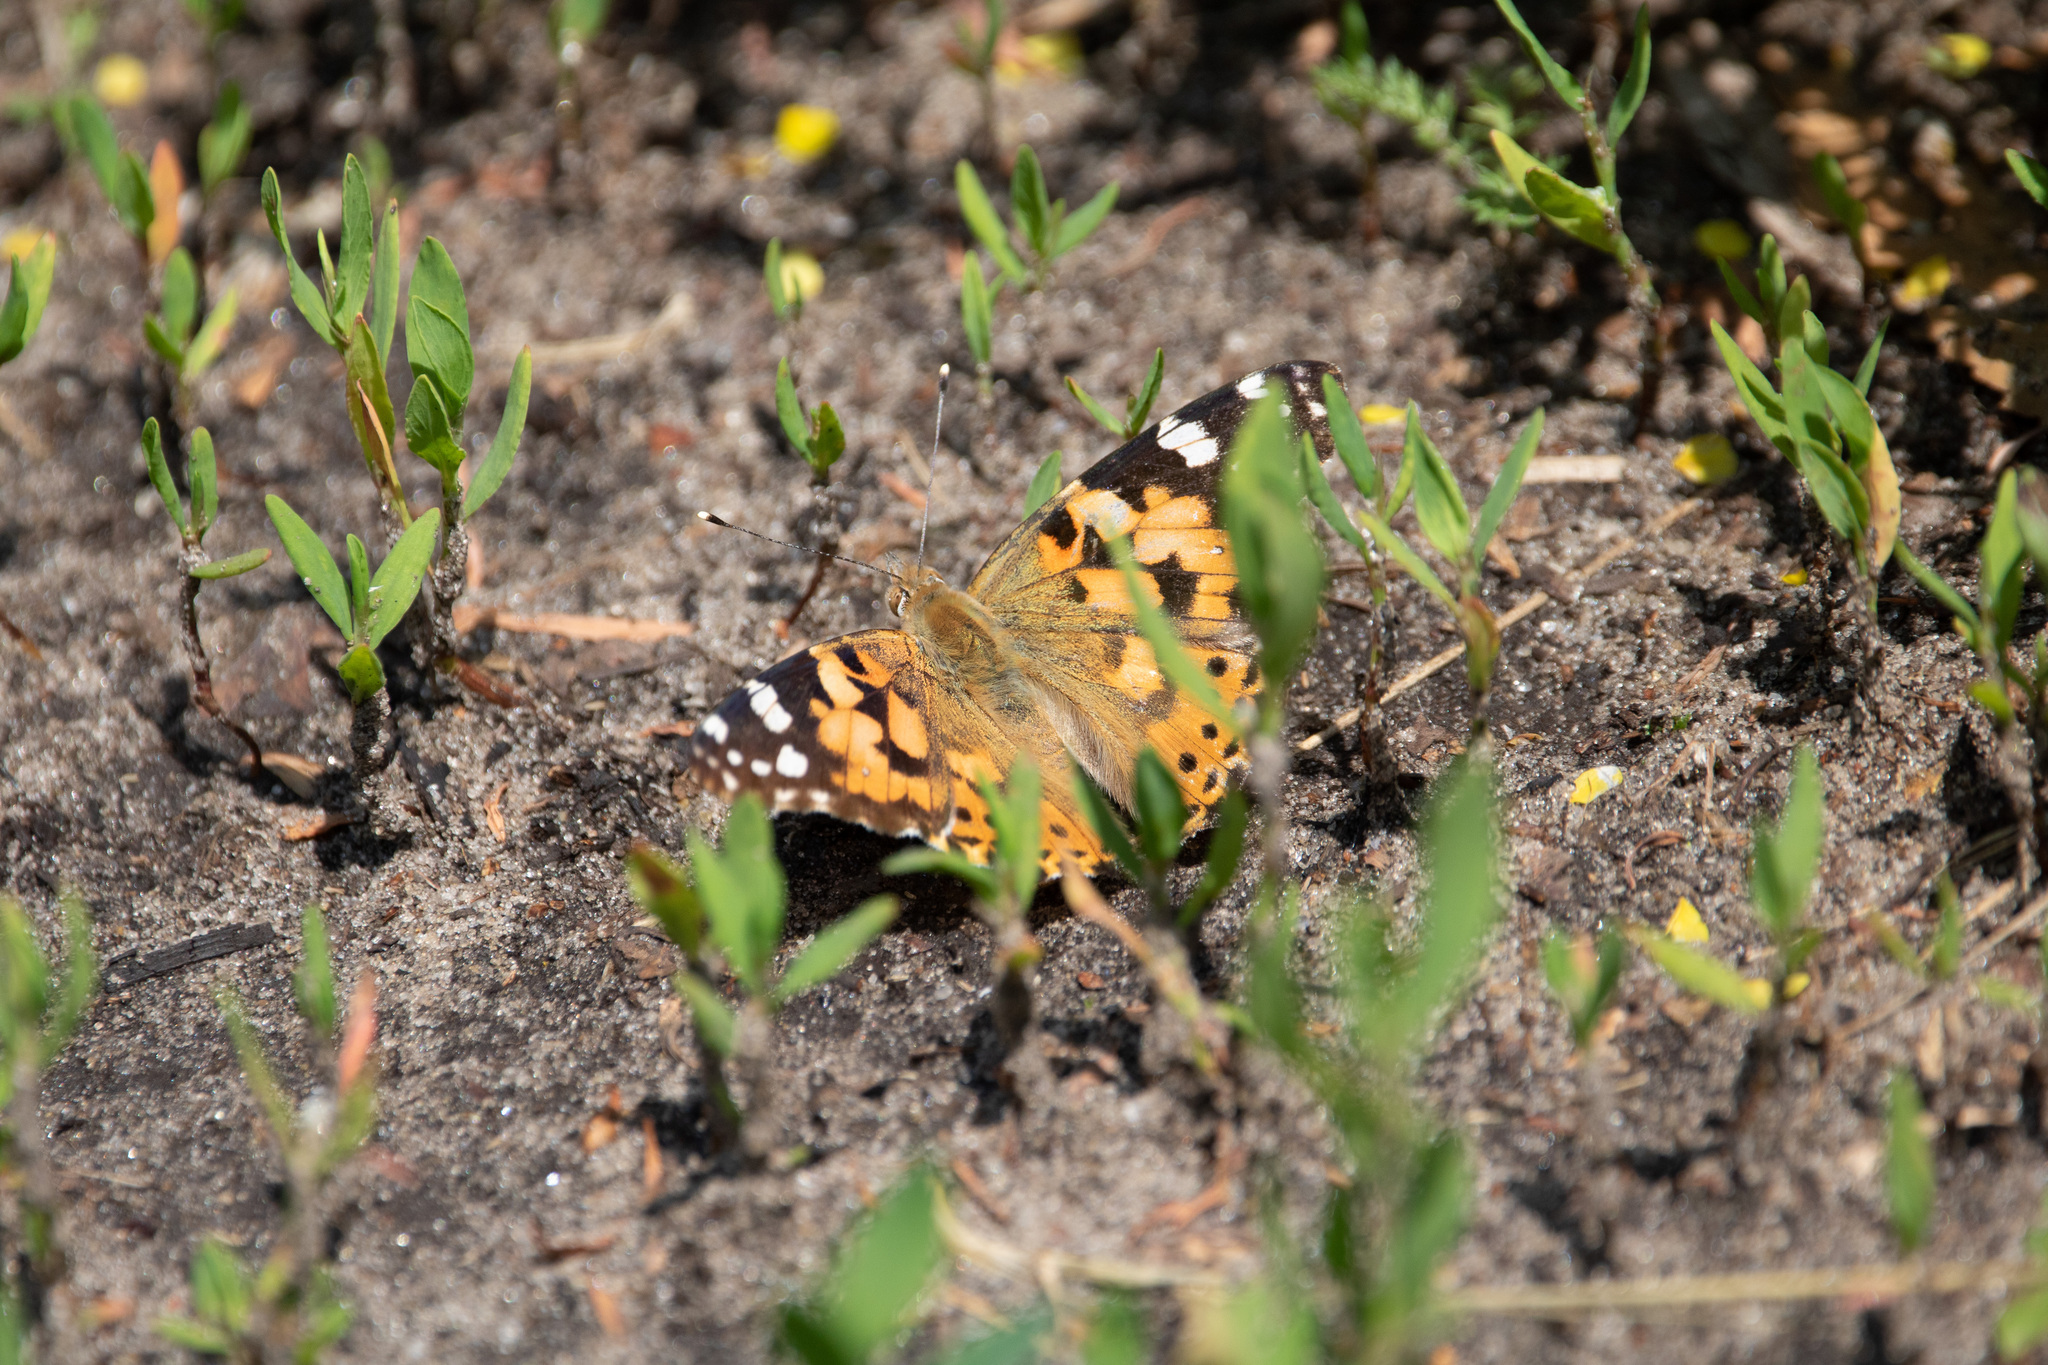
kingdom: Animalia
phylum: Arthropoda
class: Insecta
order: Lepidoptera
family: Nymphalidae
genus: Vanessa
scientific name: Vanessa cardui
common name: Painted lady
